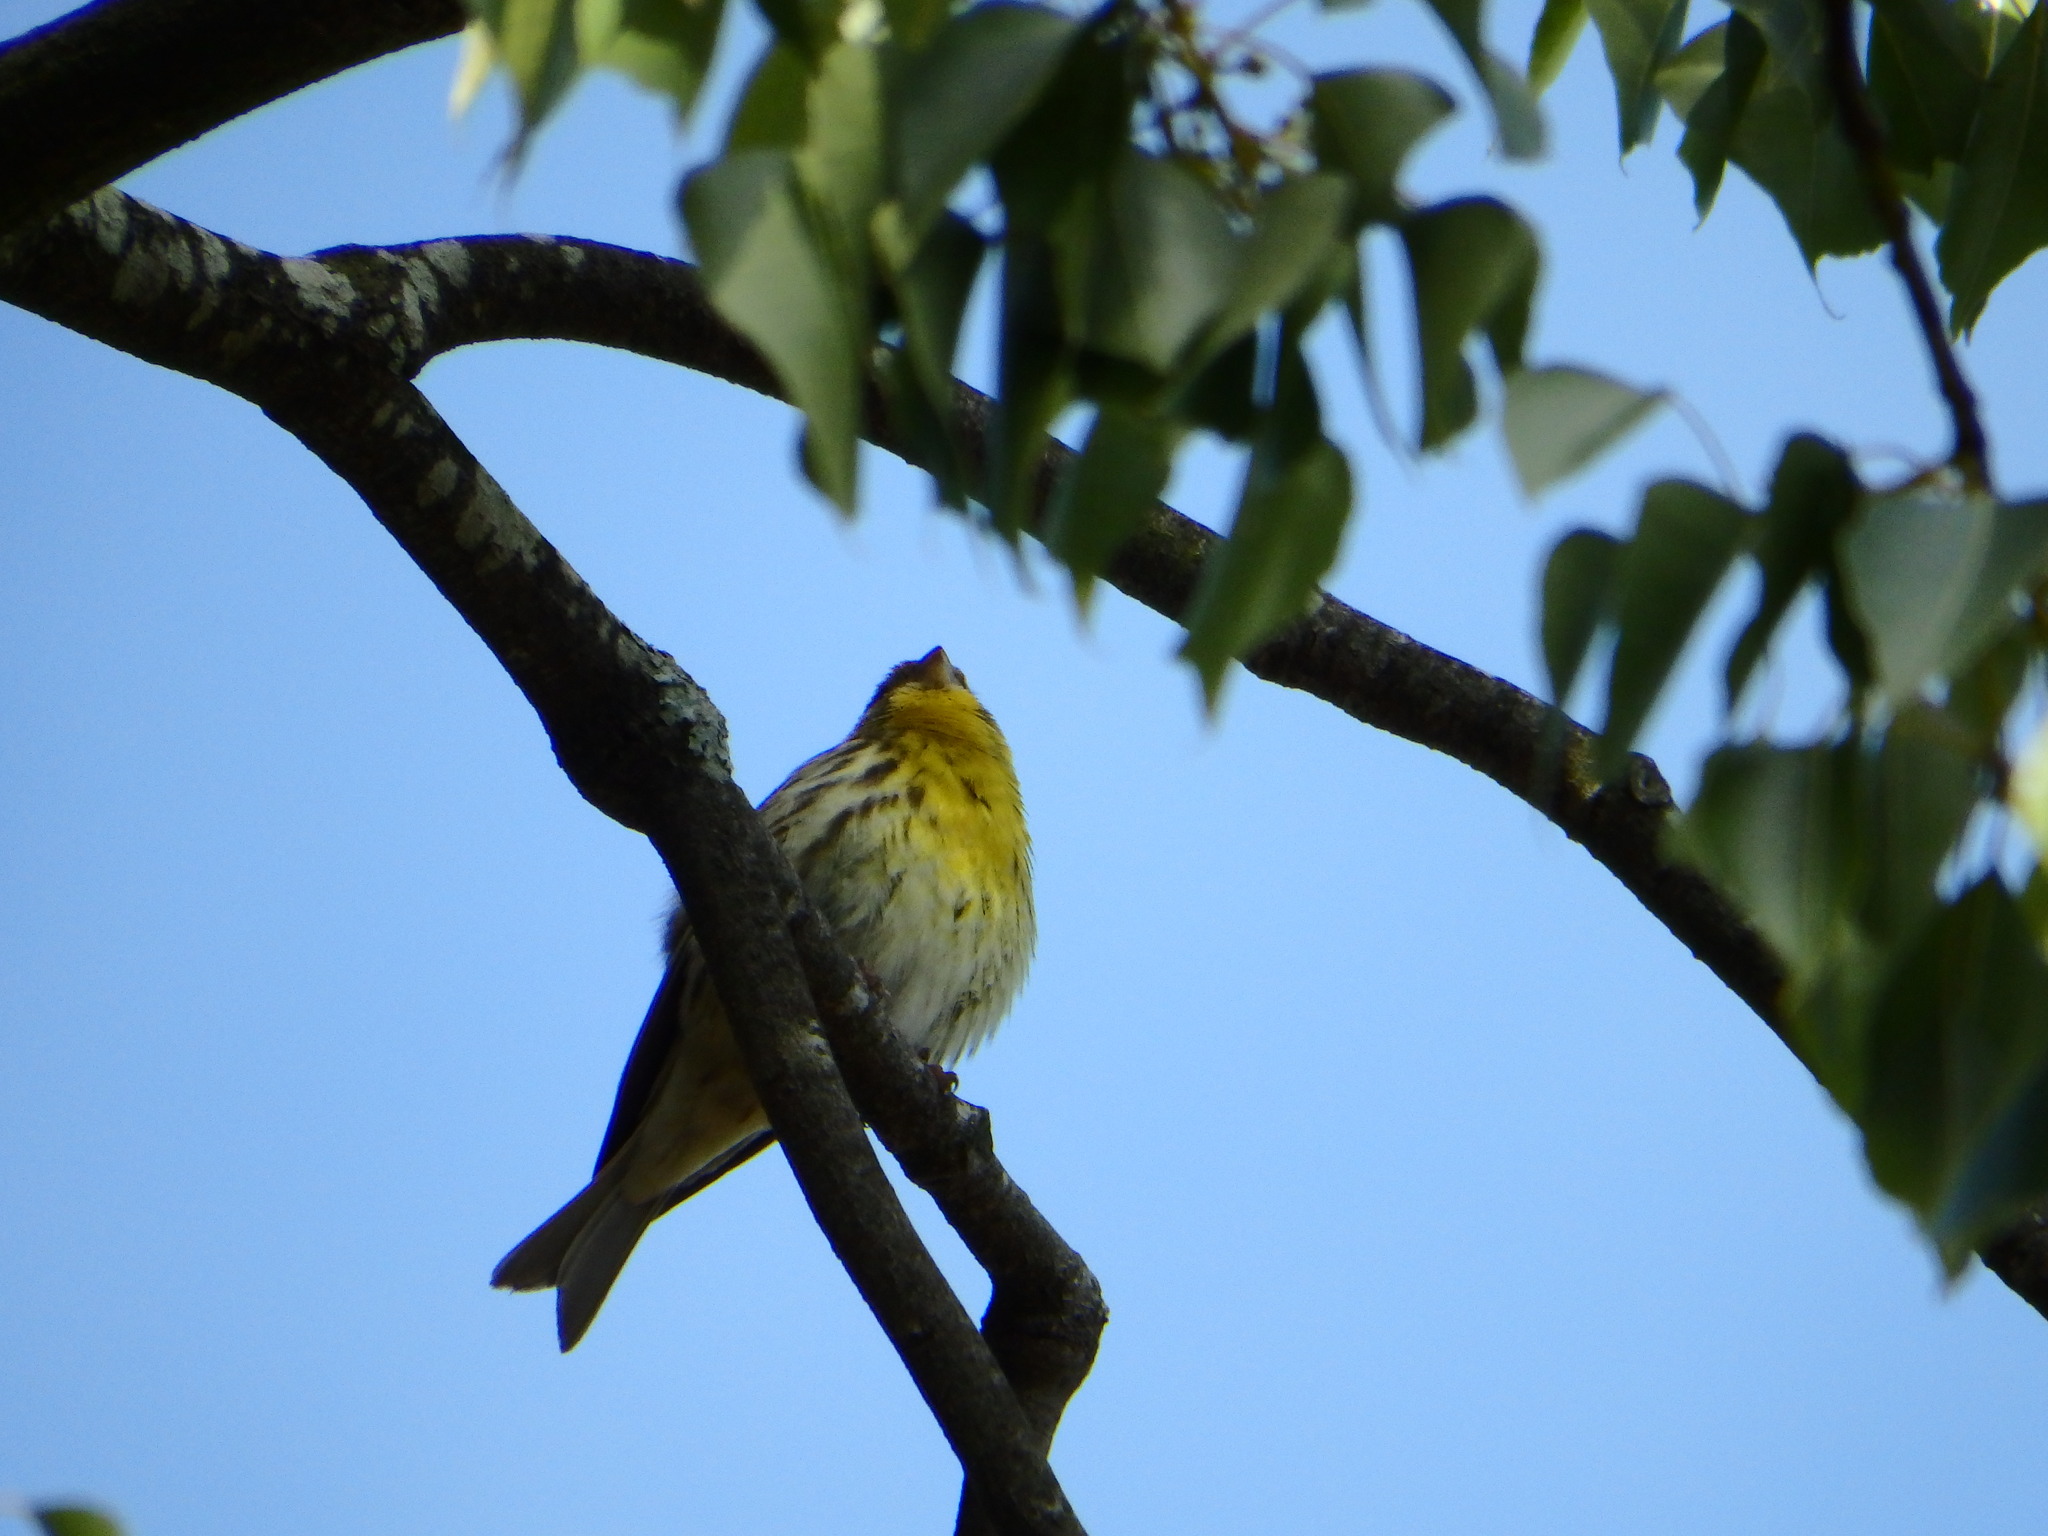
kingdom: Animalia
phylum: Chordata
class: Aves
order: Passeriformes
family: Fringillidae
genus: Serinus
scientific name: Serinus serinus
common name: European serin
